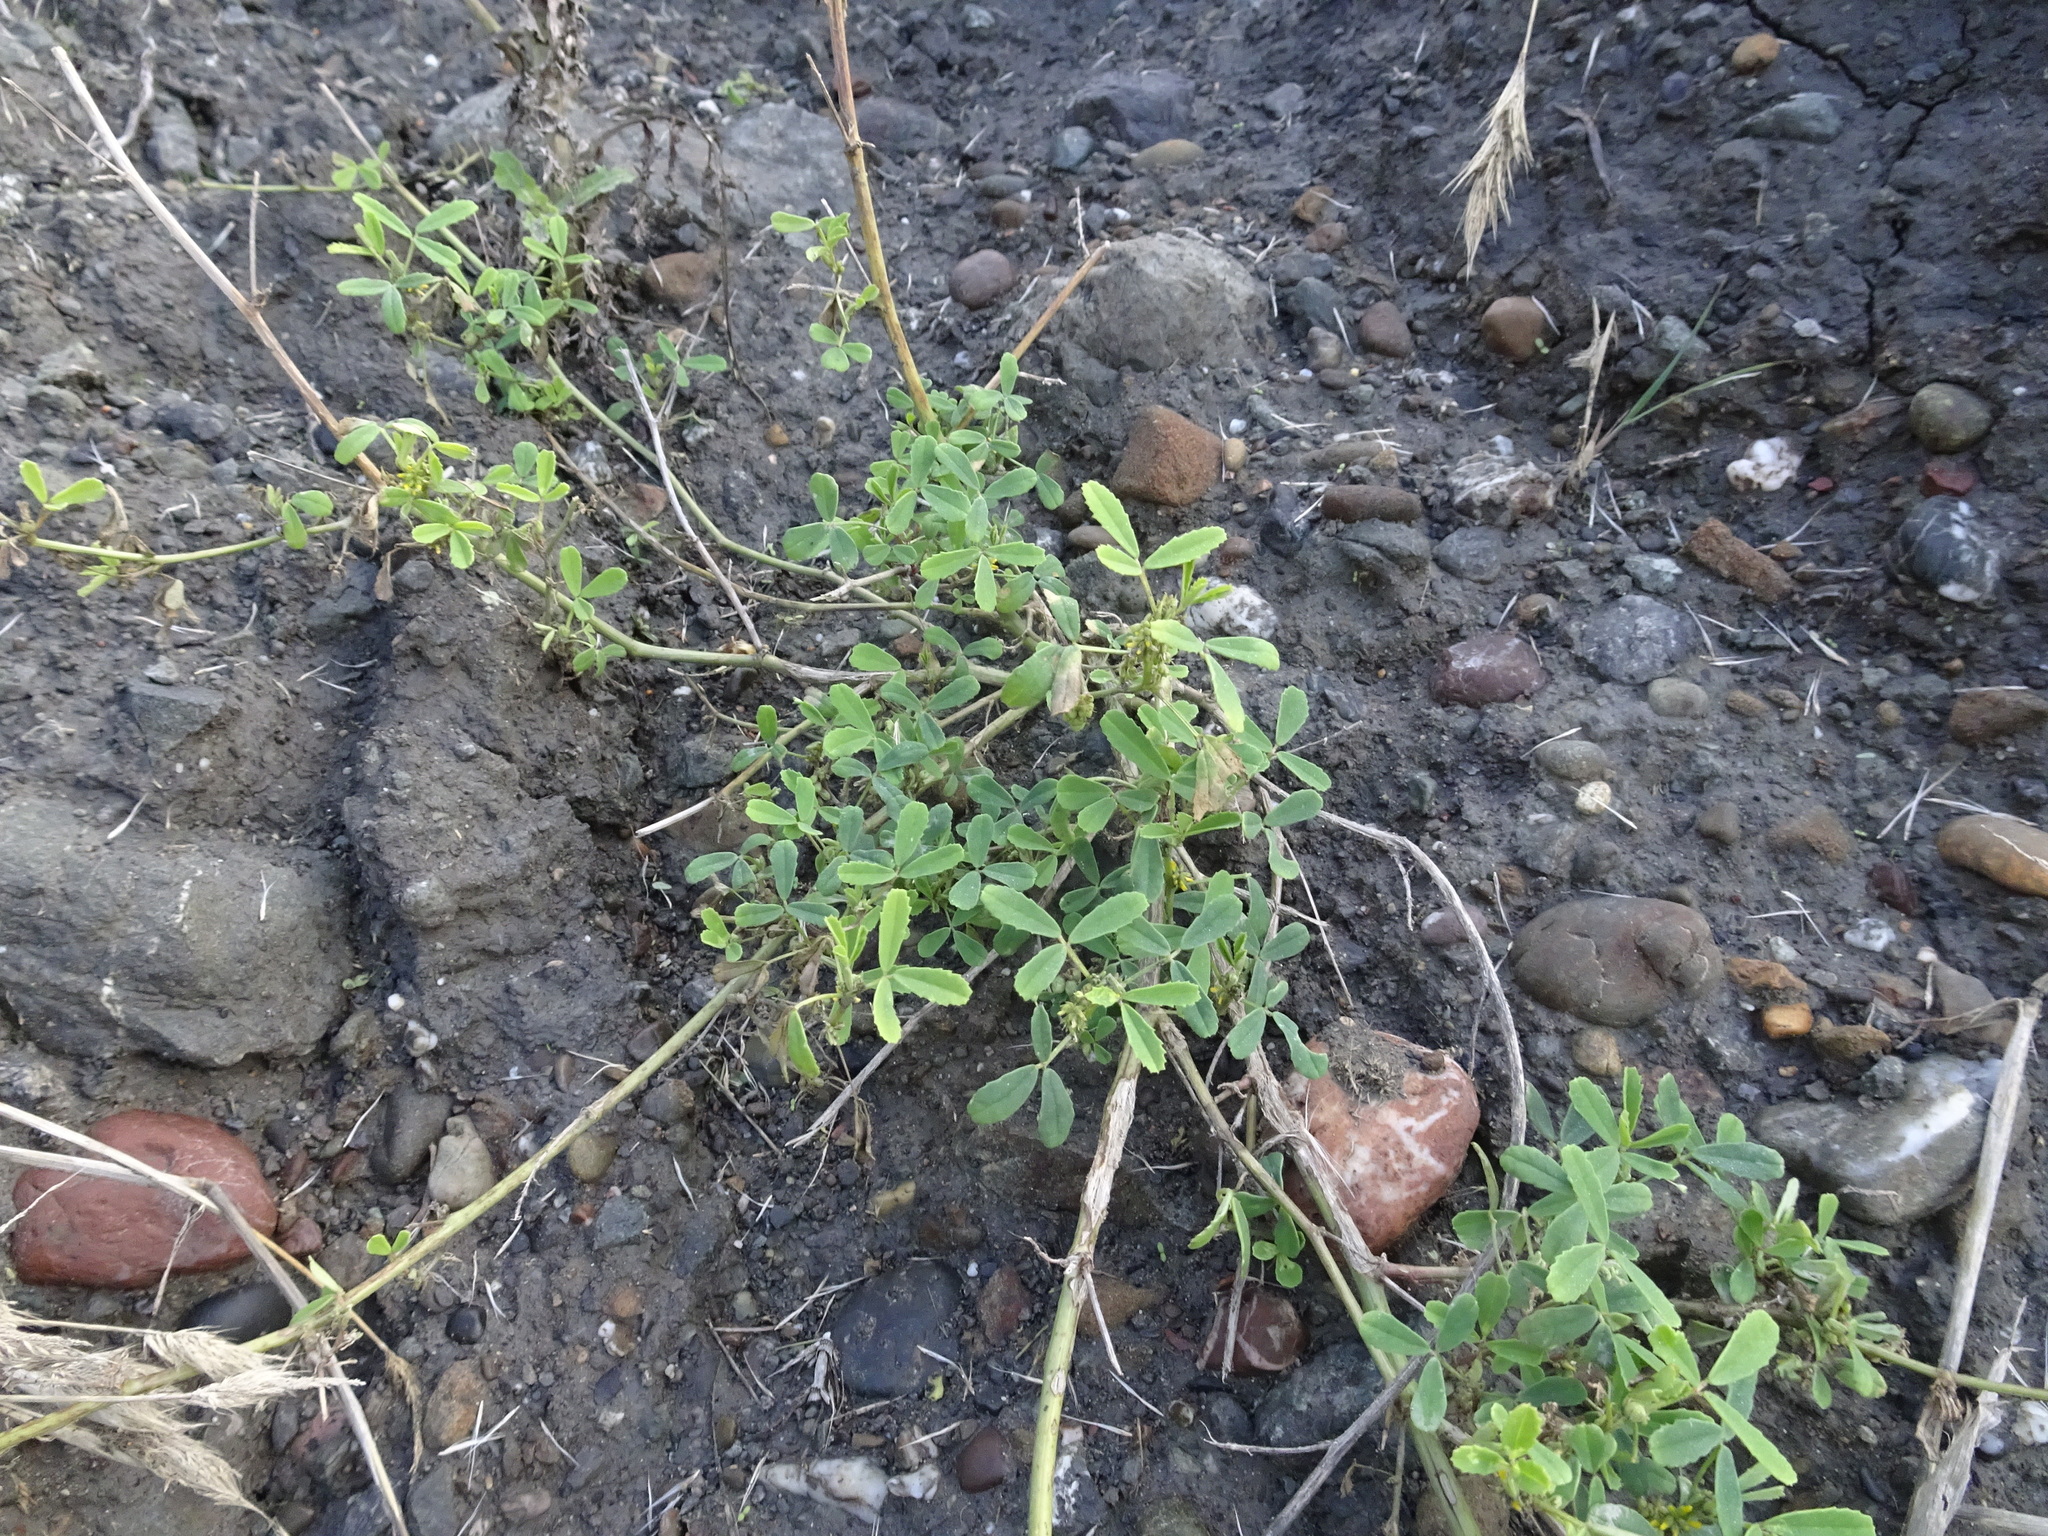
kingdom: Plantae
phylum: Tracheophyta
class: Magnoliopsida
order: Fabales
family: Fabaceae
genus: Melilotus
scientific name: Melilotus indicus
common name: Small melilot
